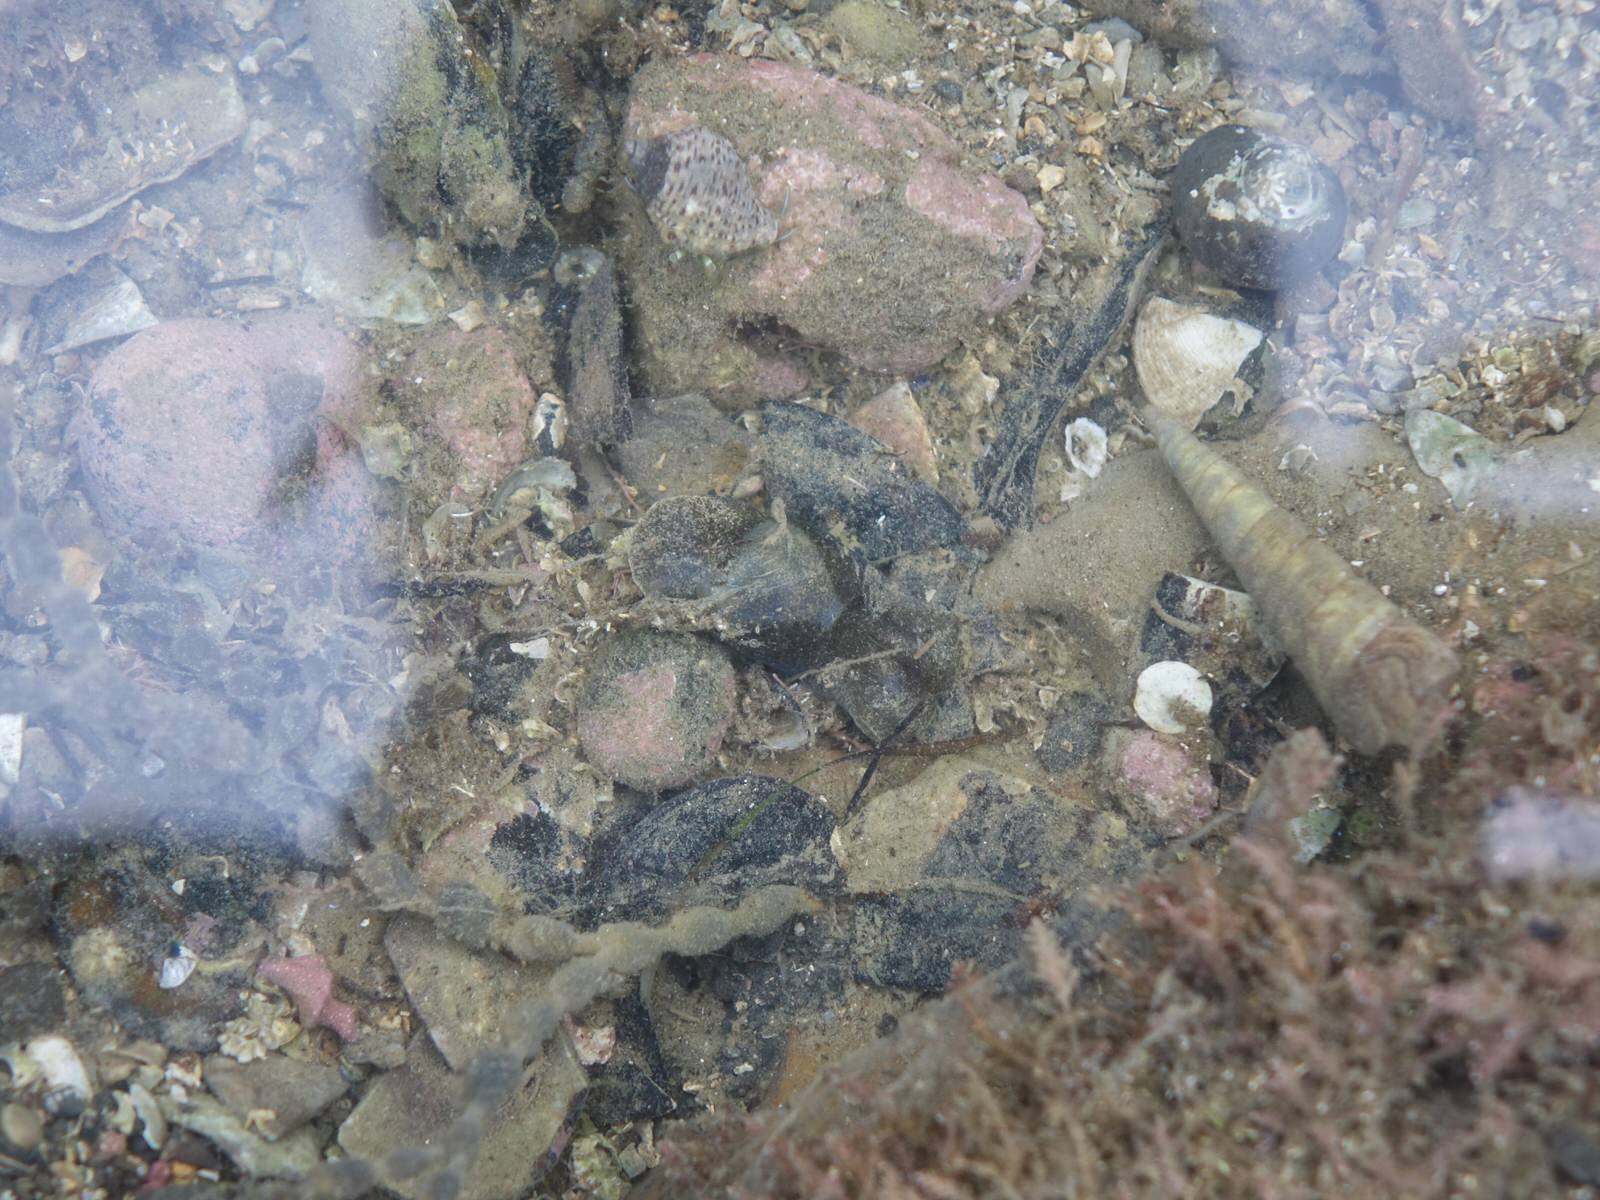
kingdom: Animalia
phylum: Mollusca
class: Gastropoda
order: Cephalaspidea
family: Haminoeidae
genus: Papawera
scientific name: Papawera zelandiae
